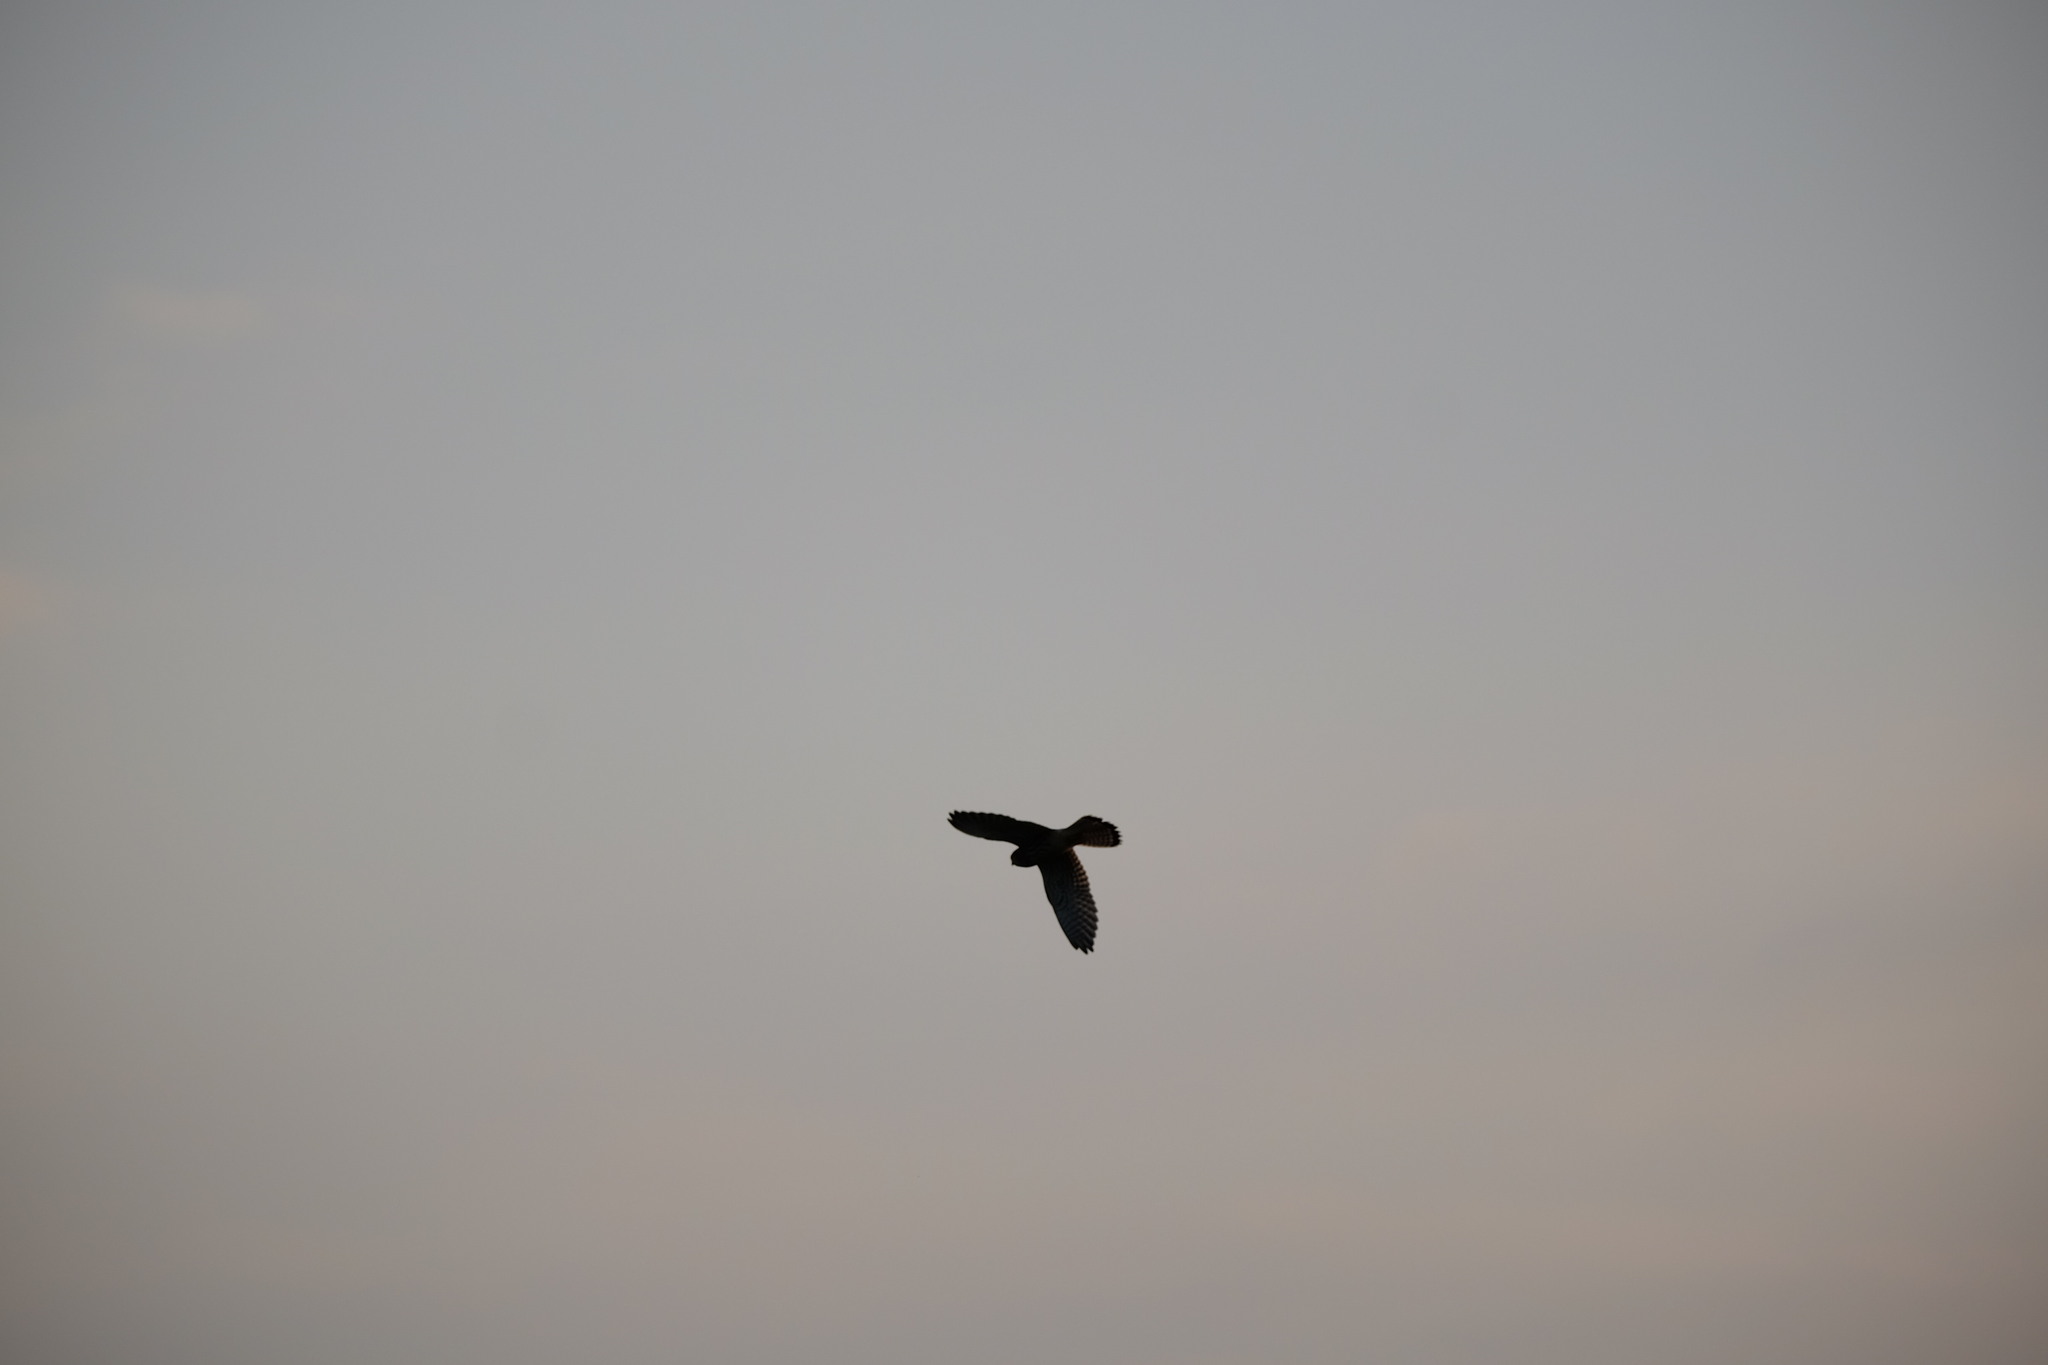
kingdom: Animalia
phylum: Chordata
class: Aves
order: Falconiformes
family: Falconidae
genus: Falco
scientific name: Falco tinnunculus
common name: Common kestrel
